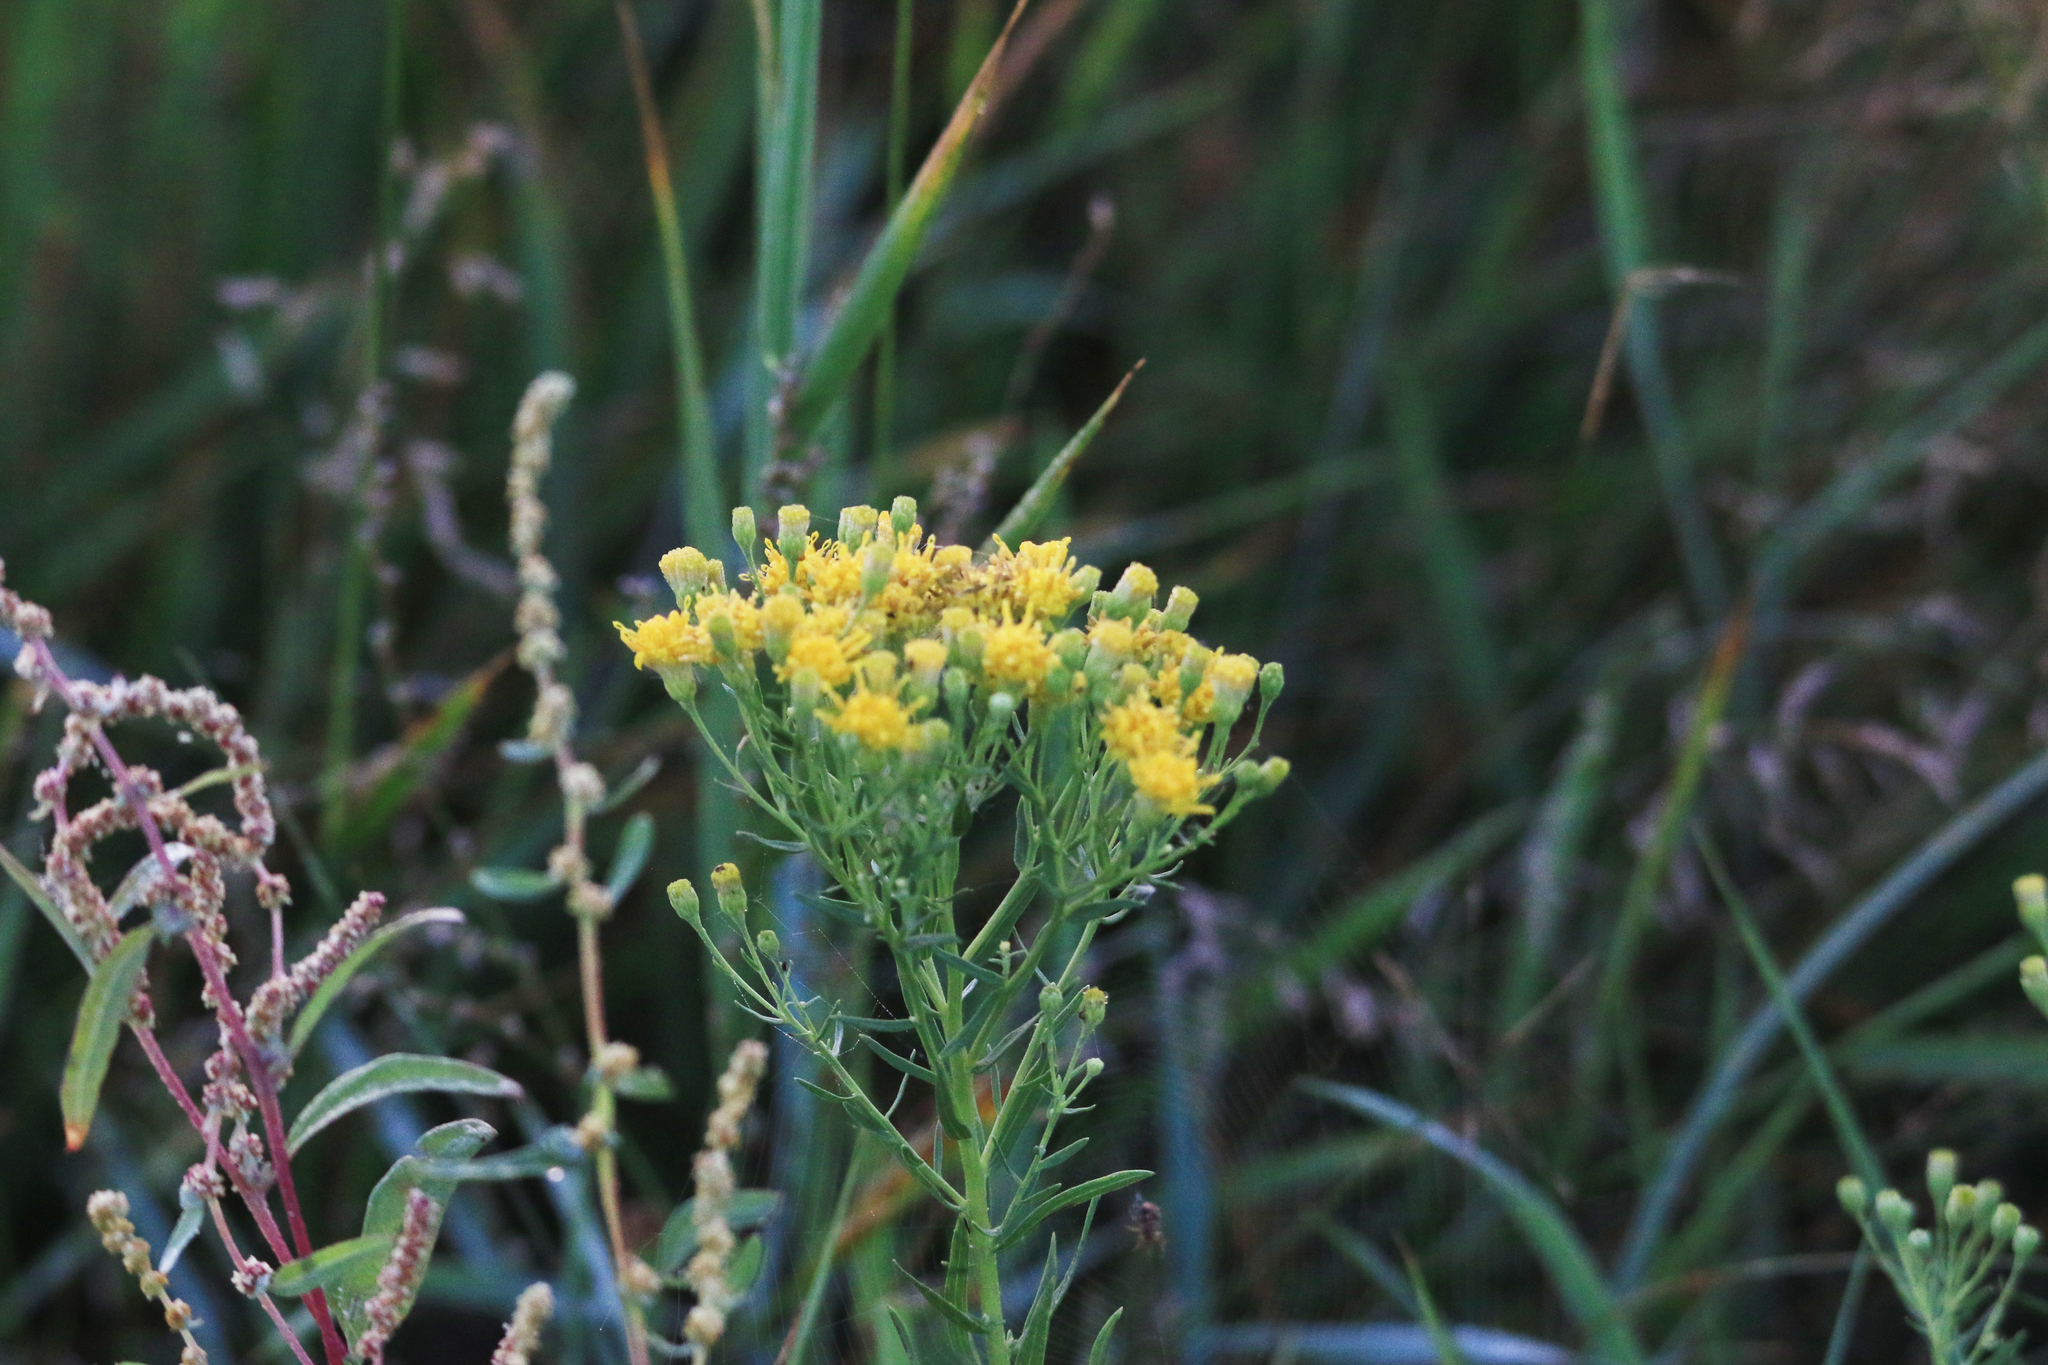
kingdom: Plantae
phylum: Tracheophyta
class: Magnoliopsida
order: Asterales
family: Asteraceae
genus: Galatella
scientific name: Galatella biflora
